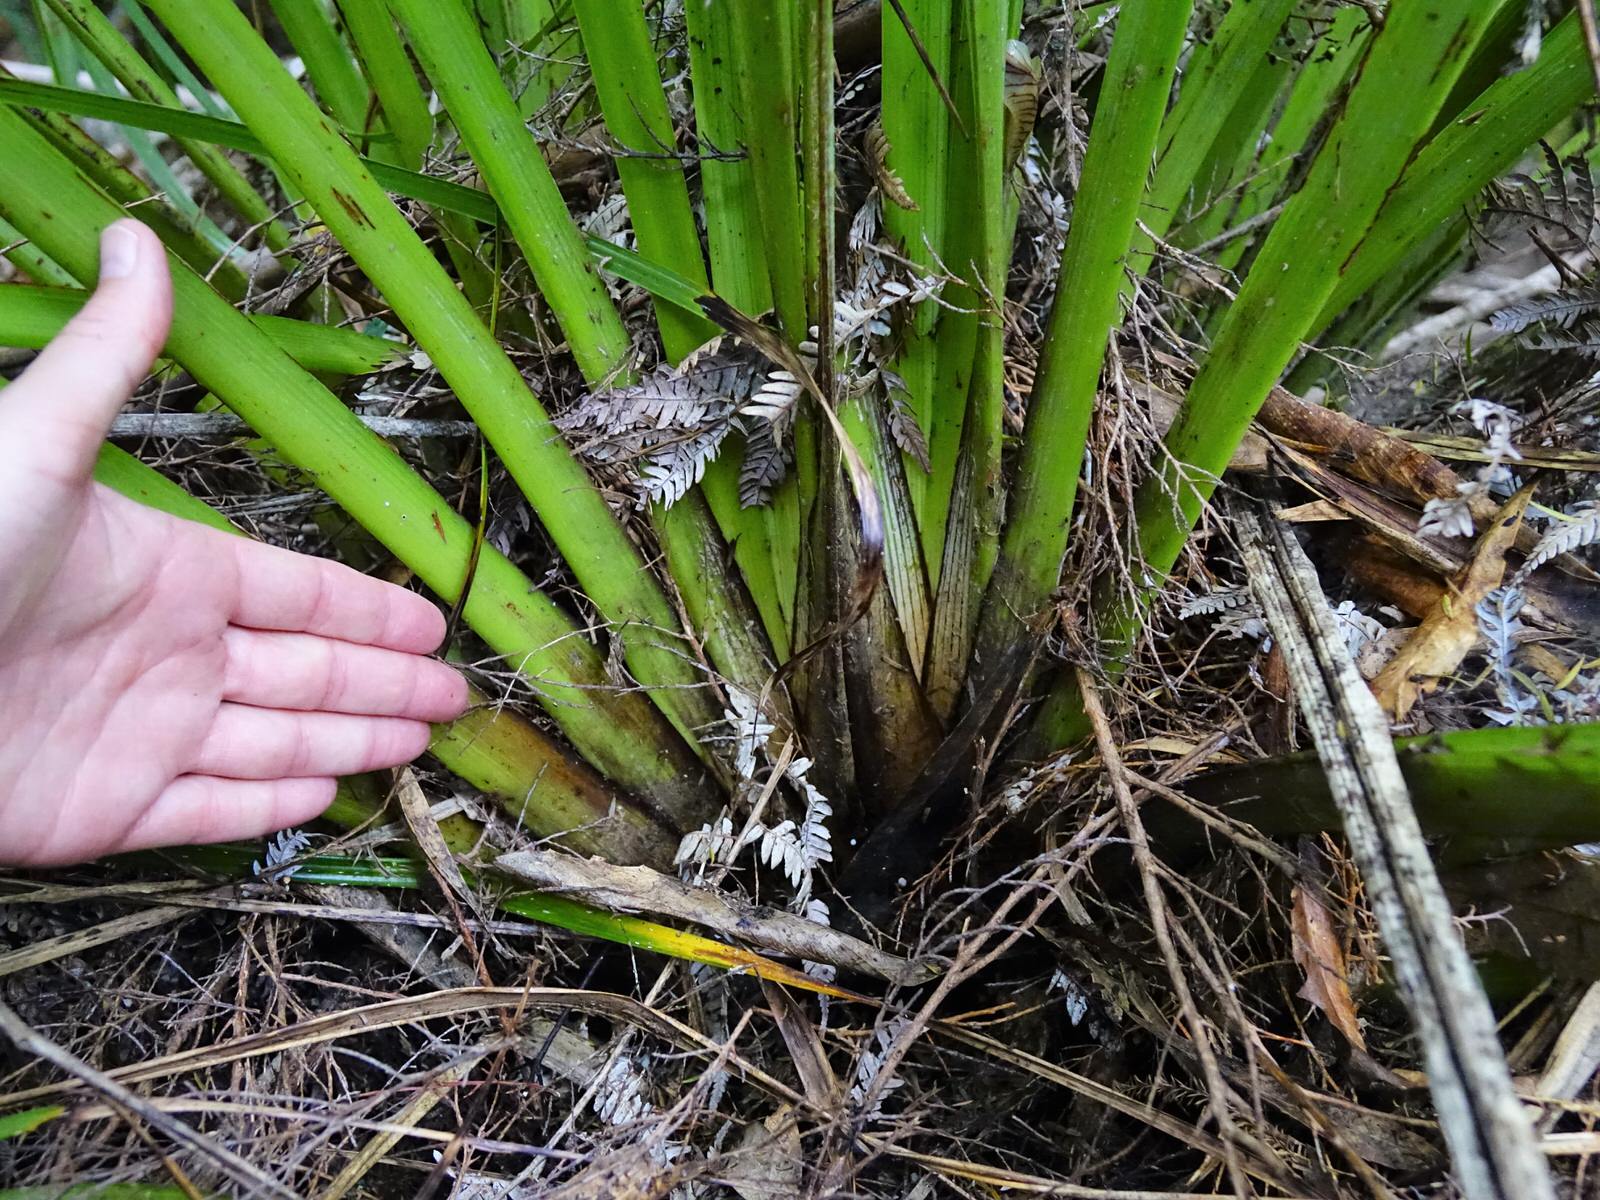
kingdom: Plantae
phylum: Tracheophyta
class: Liliopsida
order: Asparagales
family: Asteliaceae
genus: Astelia
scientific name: Astelia trinervia
